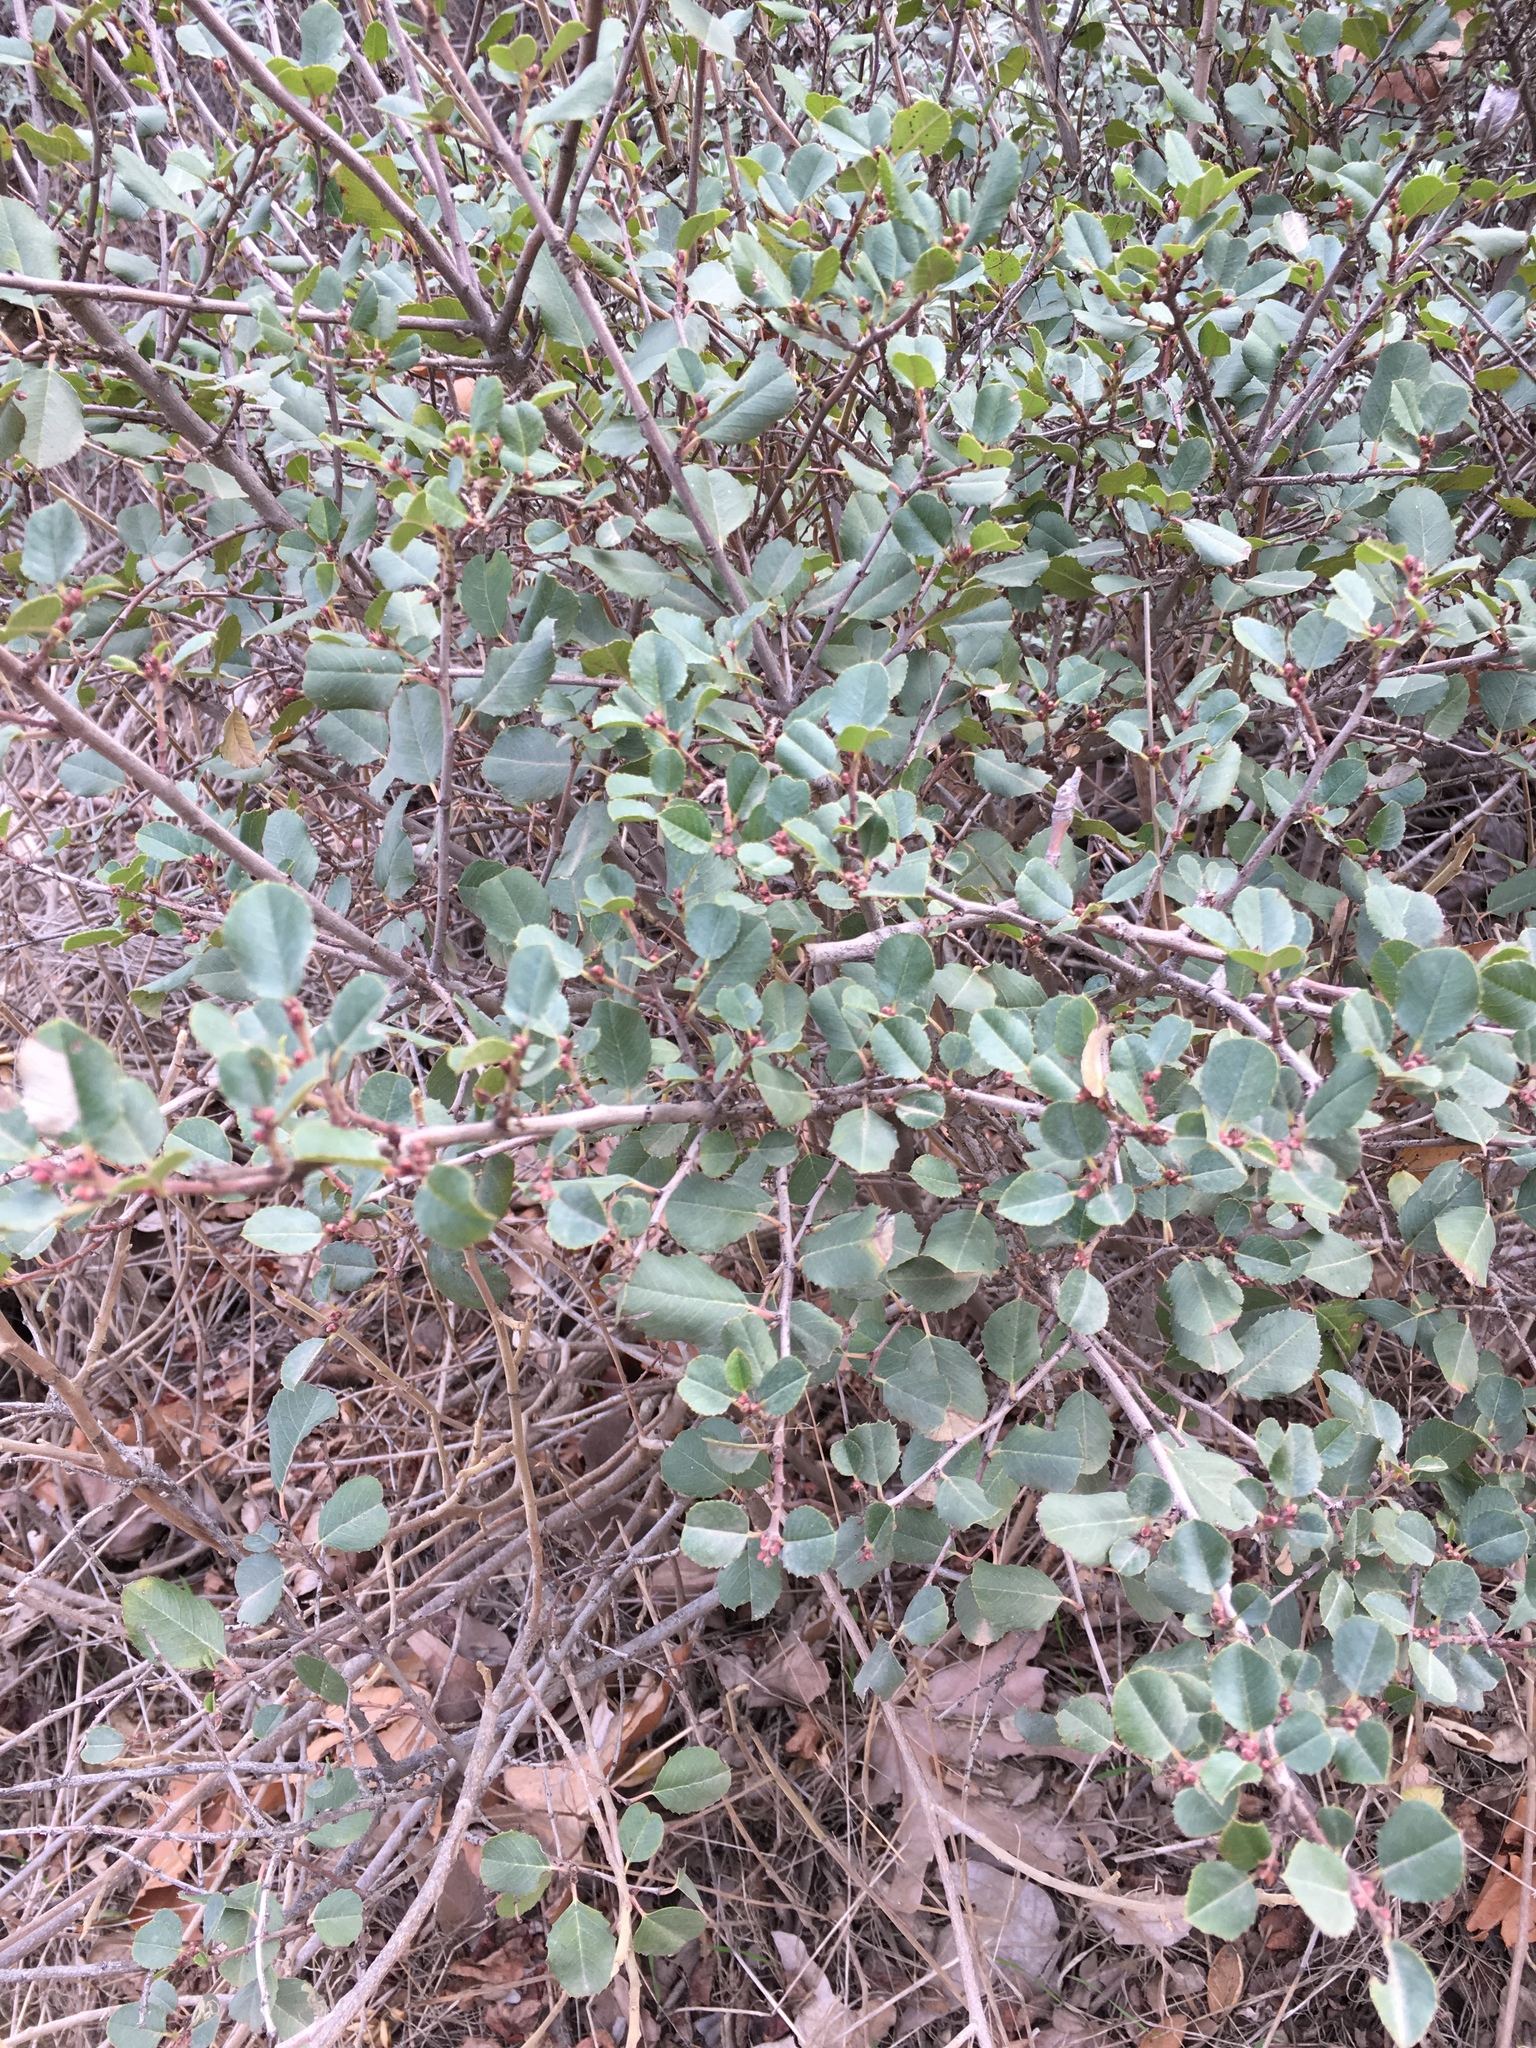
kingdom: Plantae
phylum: Tracheophyta
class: Magnoliopsida
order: Rosales
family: Rhamnaceae
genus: Endotropis
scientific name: Endotropis crocea
